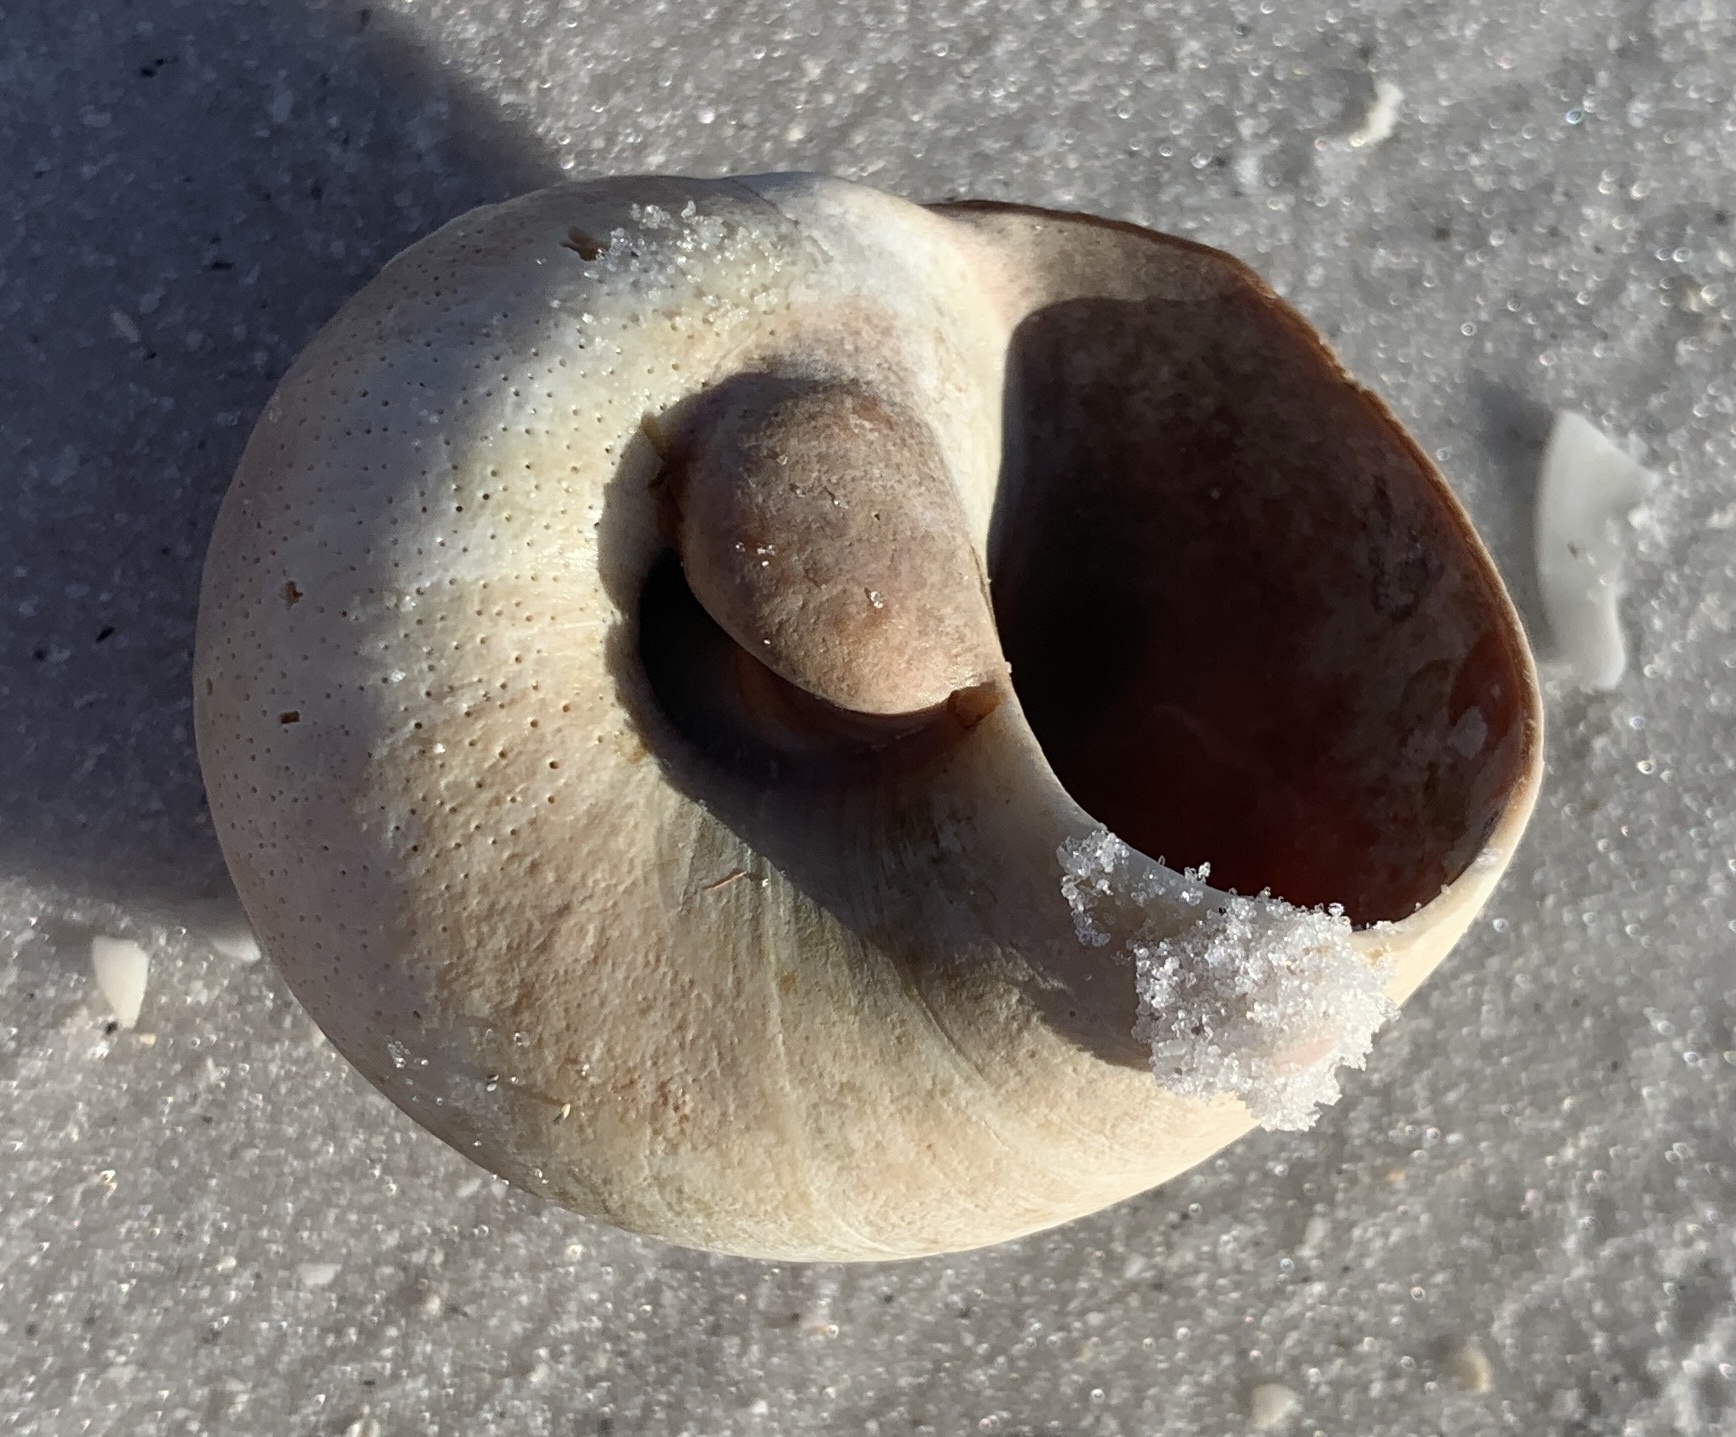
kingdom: Animalia
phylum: Mollusca
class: Gastropoda
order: Littorinimorpha
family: Naticidae
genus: Neverita
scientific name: Neverita delessertiana
